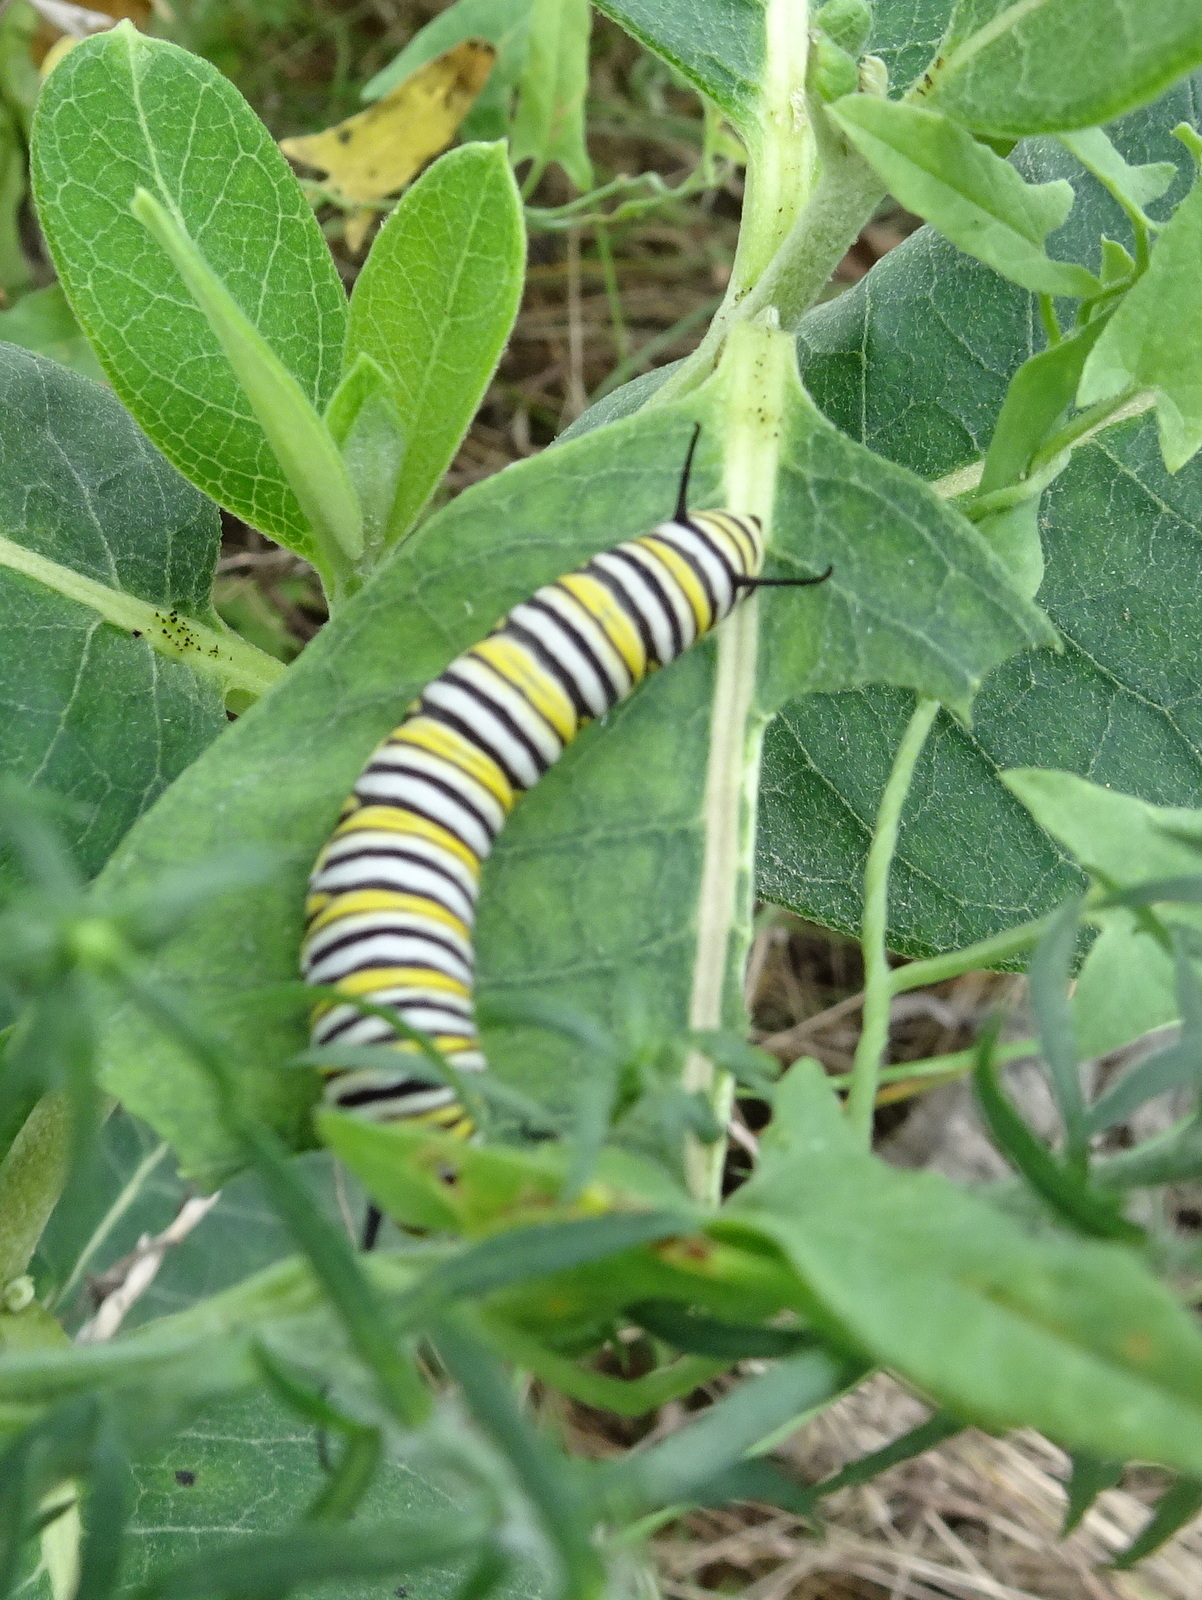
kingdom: Animalia
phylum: Arthropoda
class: Insecta
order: Lepidoptera
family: Nymphalidae
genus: Danaus
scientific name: Danaus plexippus
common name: Monarch
